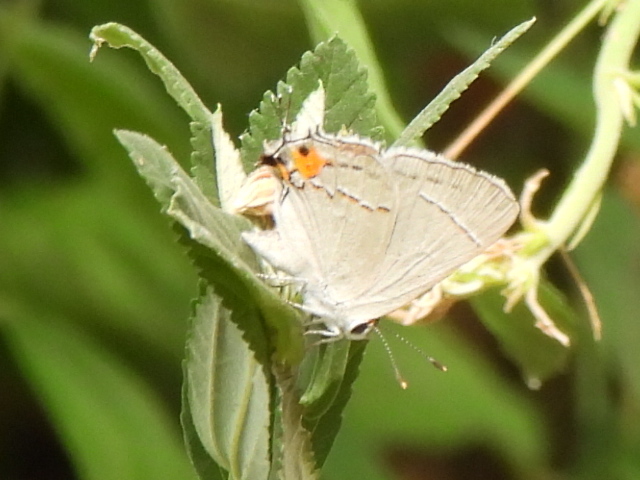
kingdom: Animalia
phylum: Arthropoda
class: Insecta
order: Lepidoptera
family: Lycaenidae
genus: Strymon
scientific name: Strymon melinus
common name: Gray hairstreak
